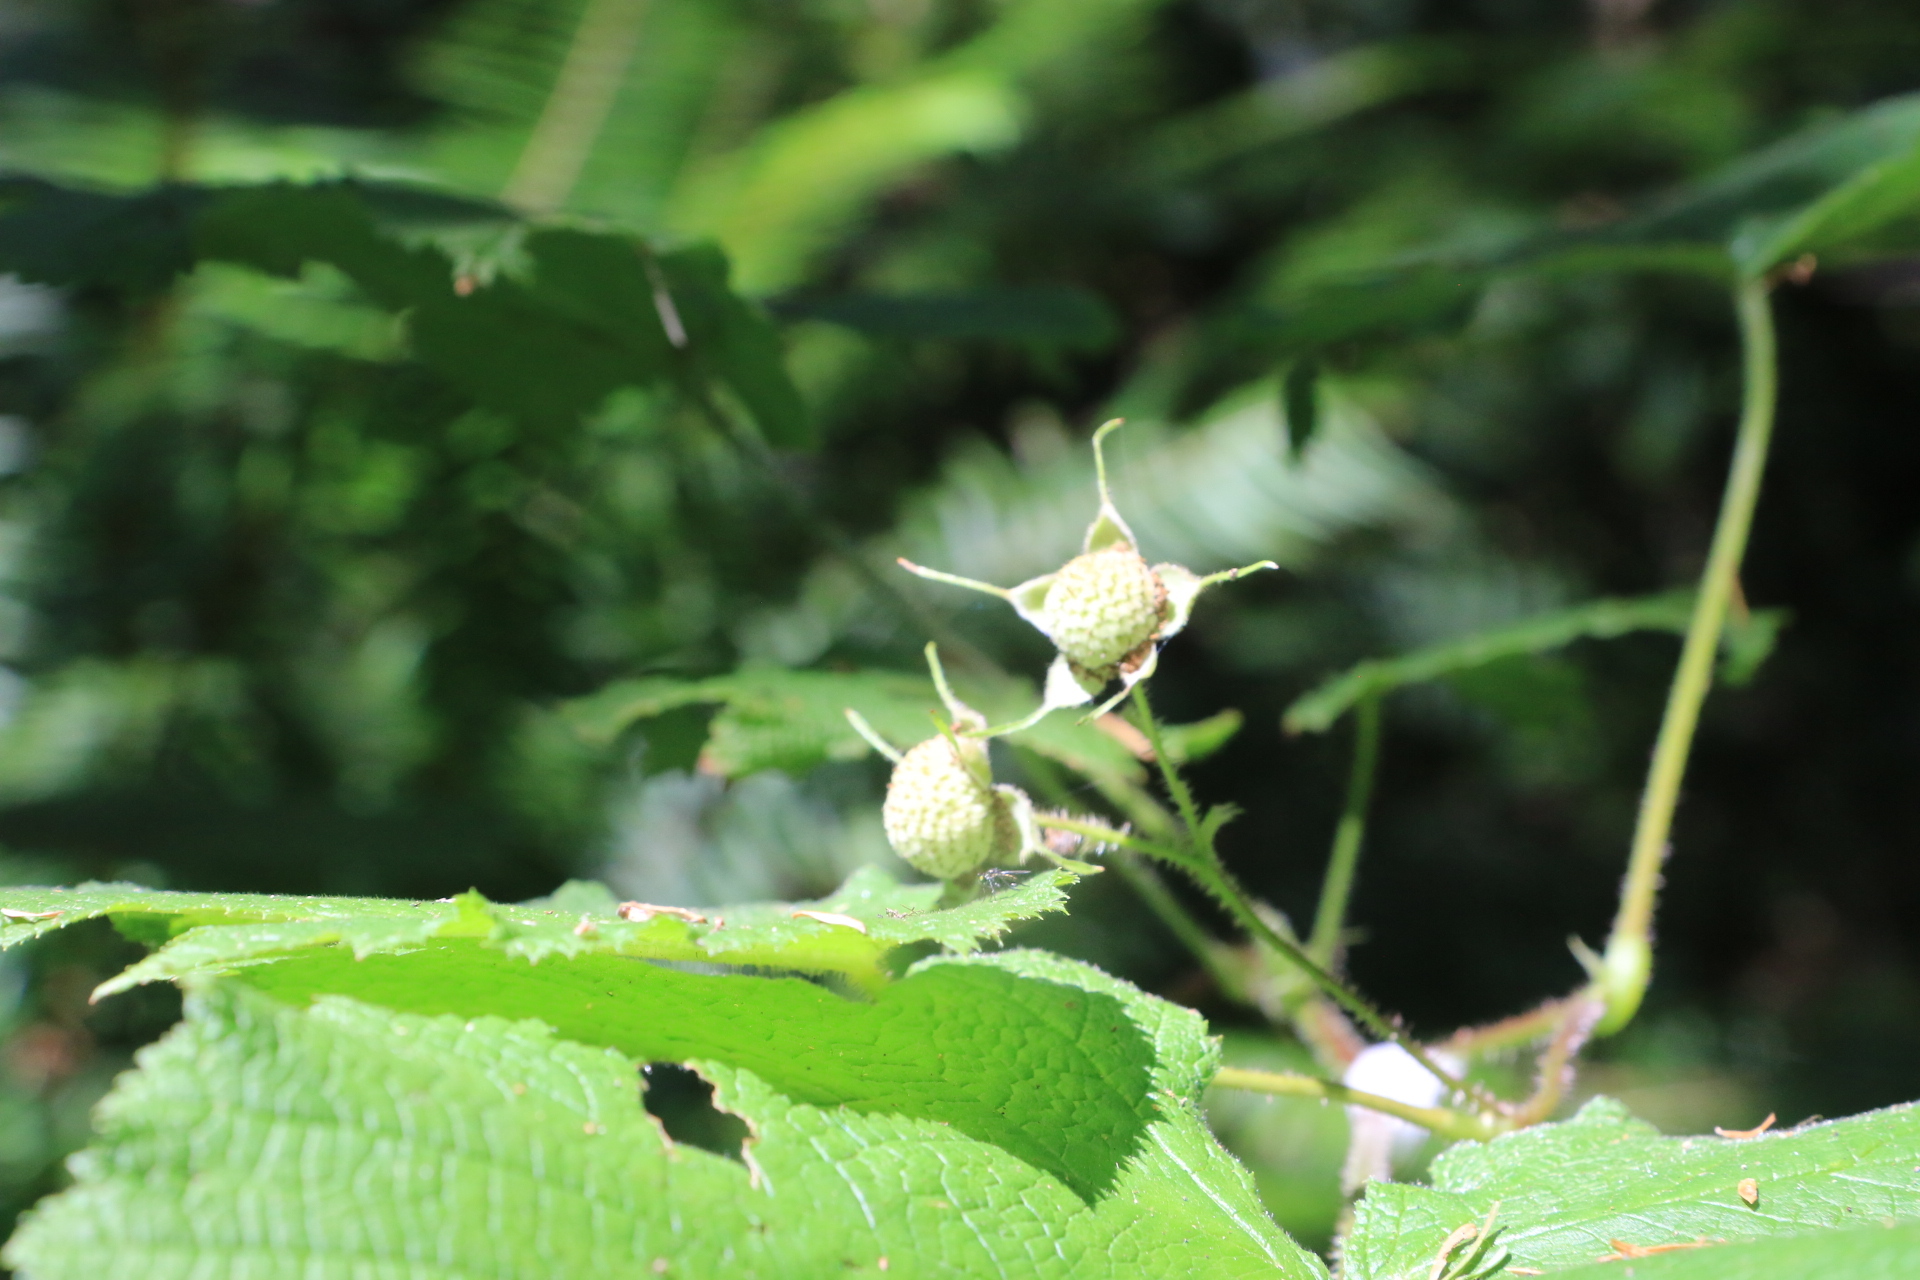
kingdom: Plantae
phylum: Tracheophyta
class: Magnoliopsida
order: Rosales
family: Rosaceae
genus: Rubus
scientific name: Rubus parviflorus
